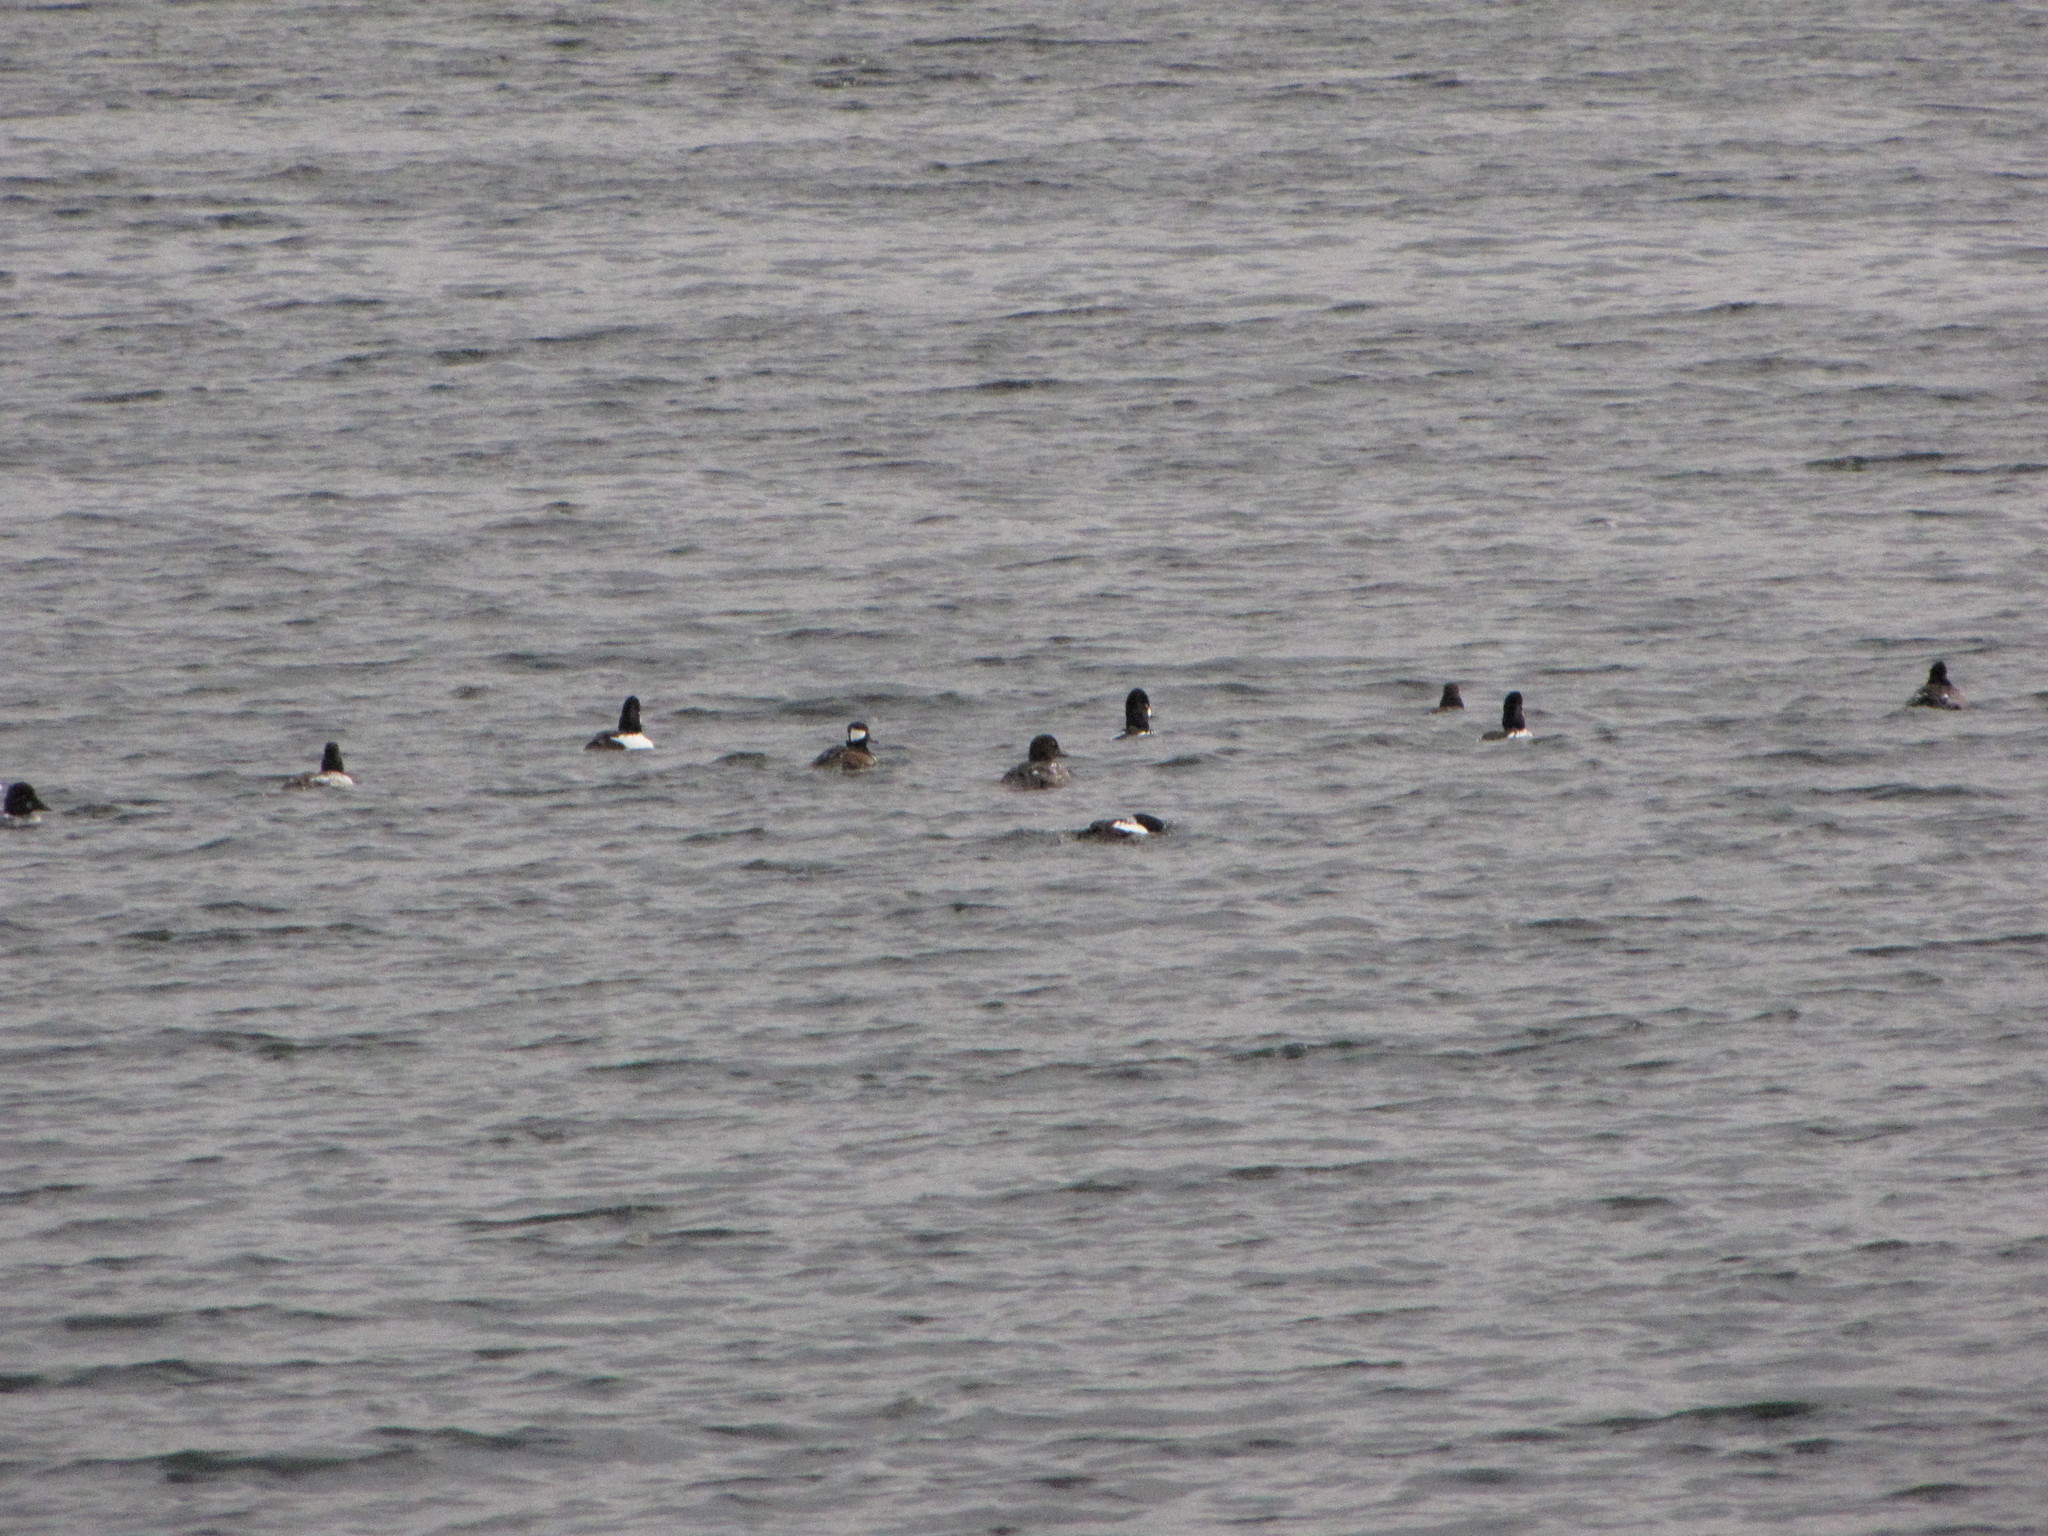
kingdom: Animalia
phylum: Chordata
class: Aves
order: Anseriformes
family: Anatidae
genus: Bucephala
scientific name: Bucephala clangula
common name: Common goldeneye
